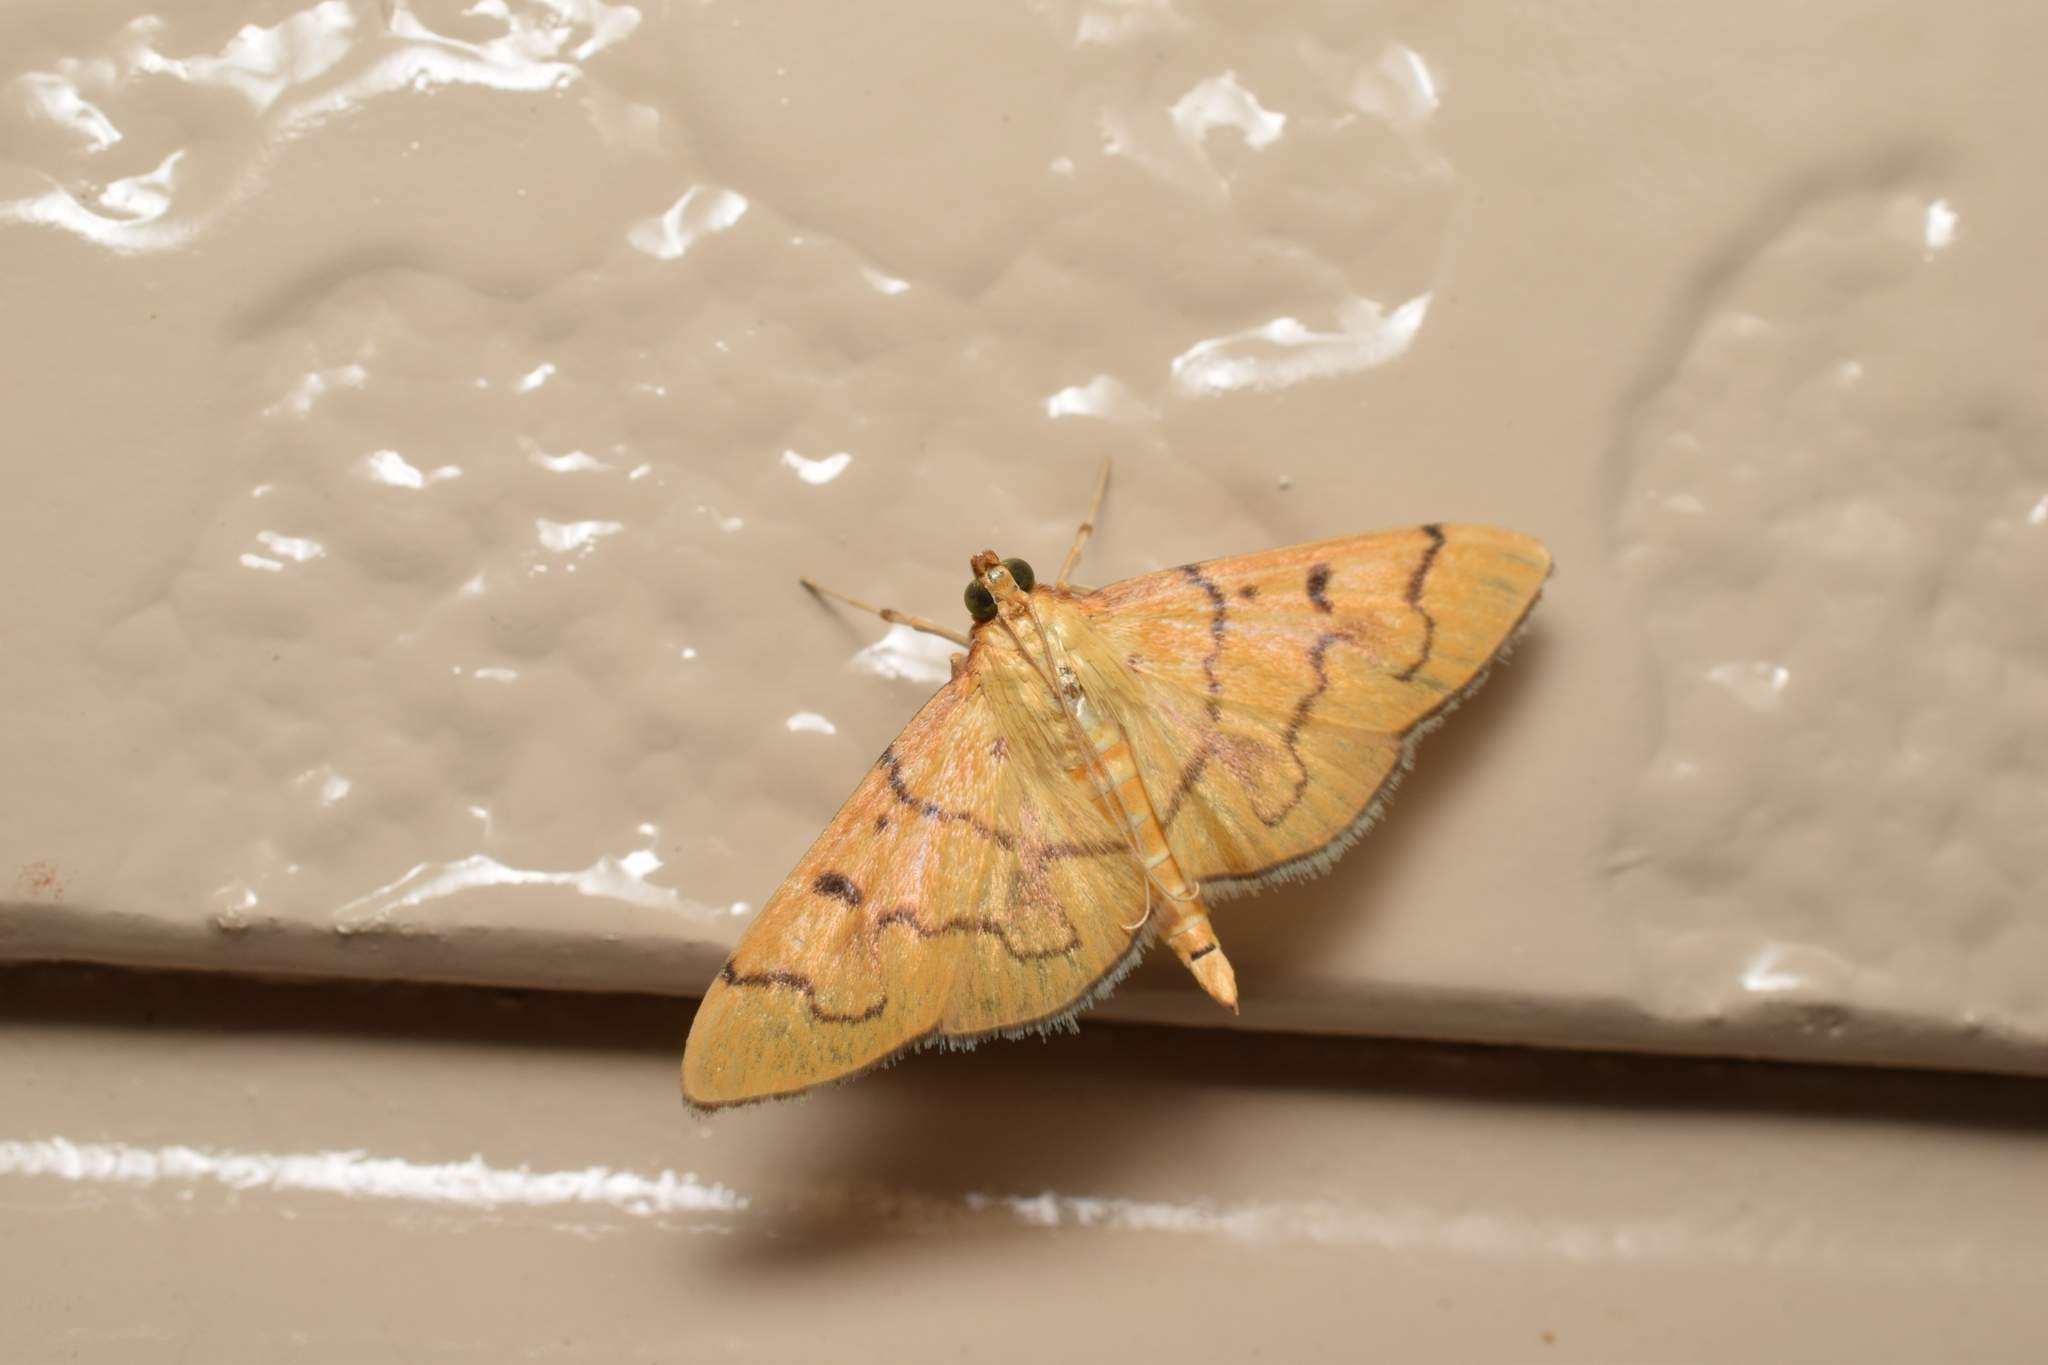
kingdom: Animalia
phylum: Arthropoda
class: Insecta
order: Lepidoptera
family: Crambidae
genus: Patania
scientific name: Patania chlorophanta
